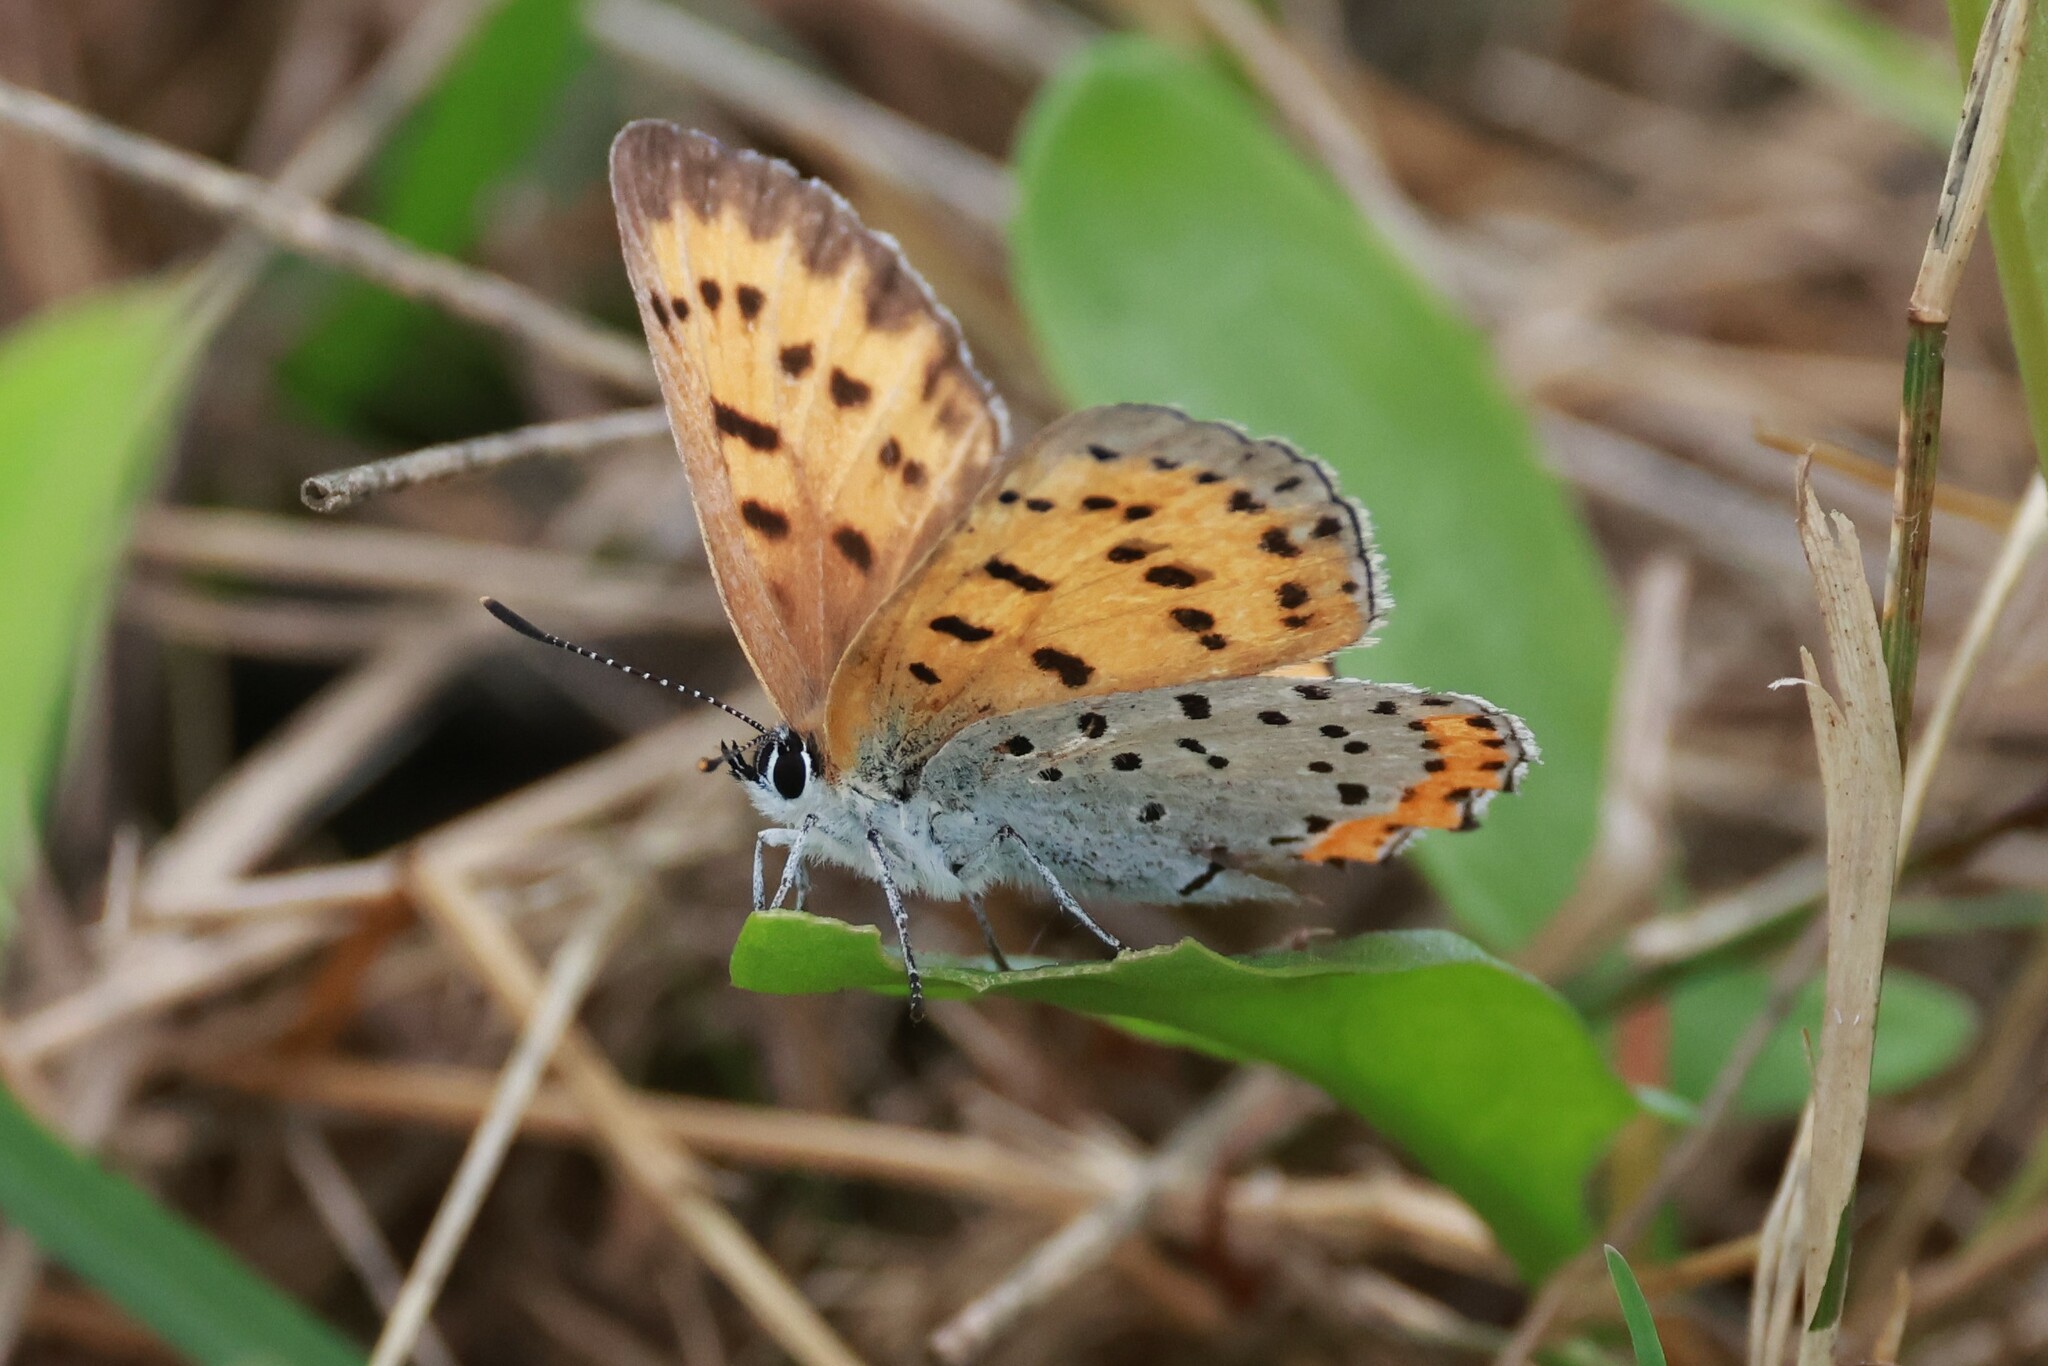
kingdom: Animalia
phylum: Arthropoda
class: Insecta
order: Lepidoptera
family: Lycaenidae
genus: Tharsalea
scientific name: Tharsalea hyllus
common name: Bronze copper
